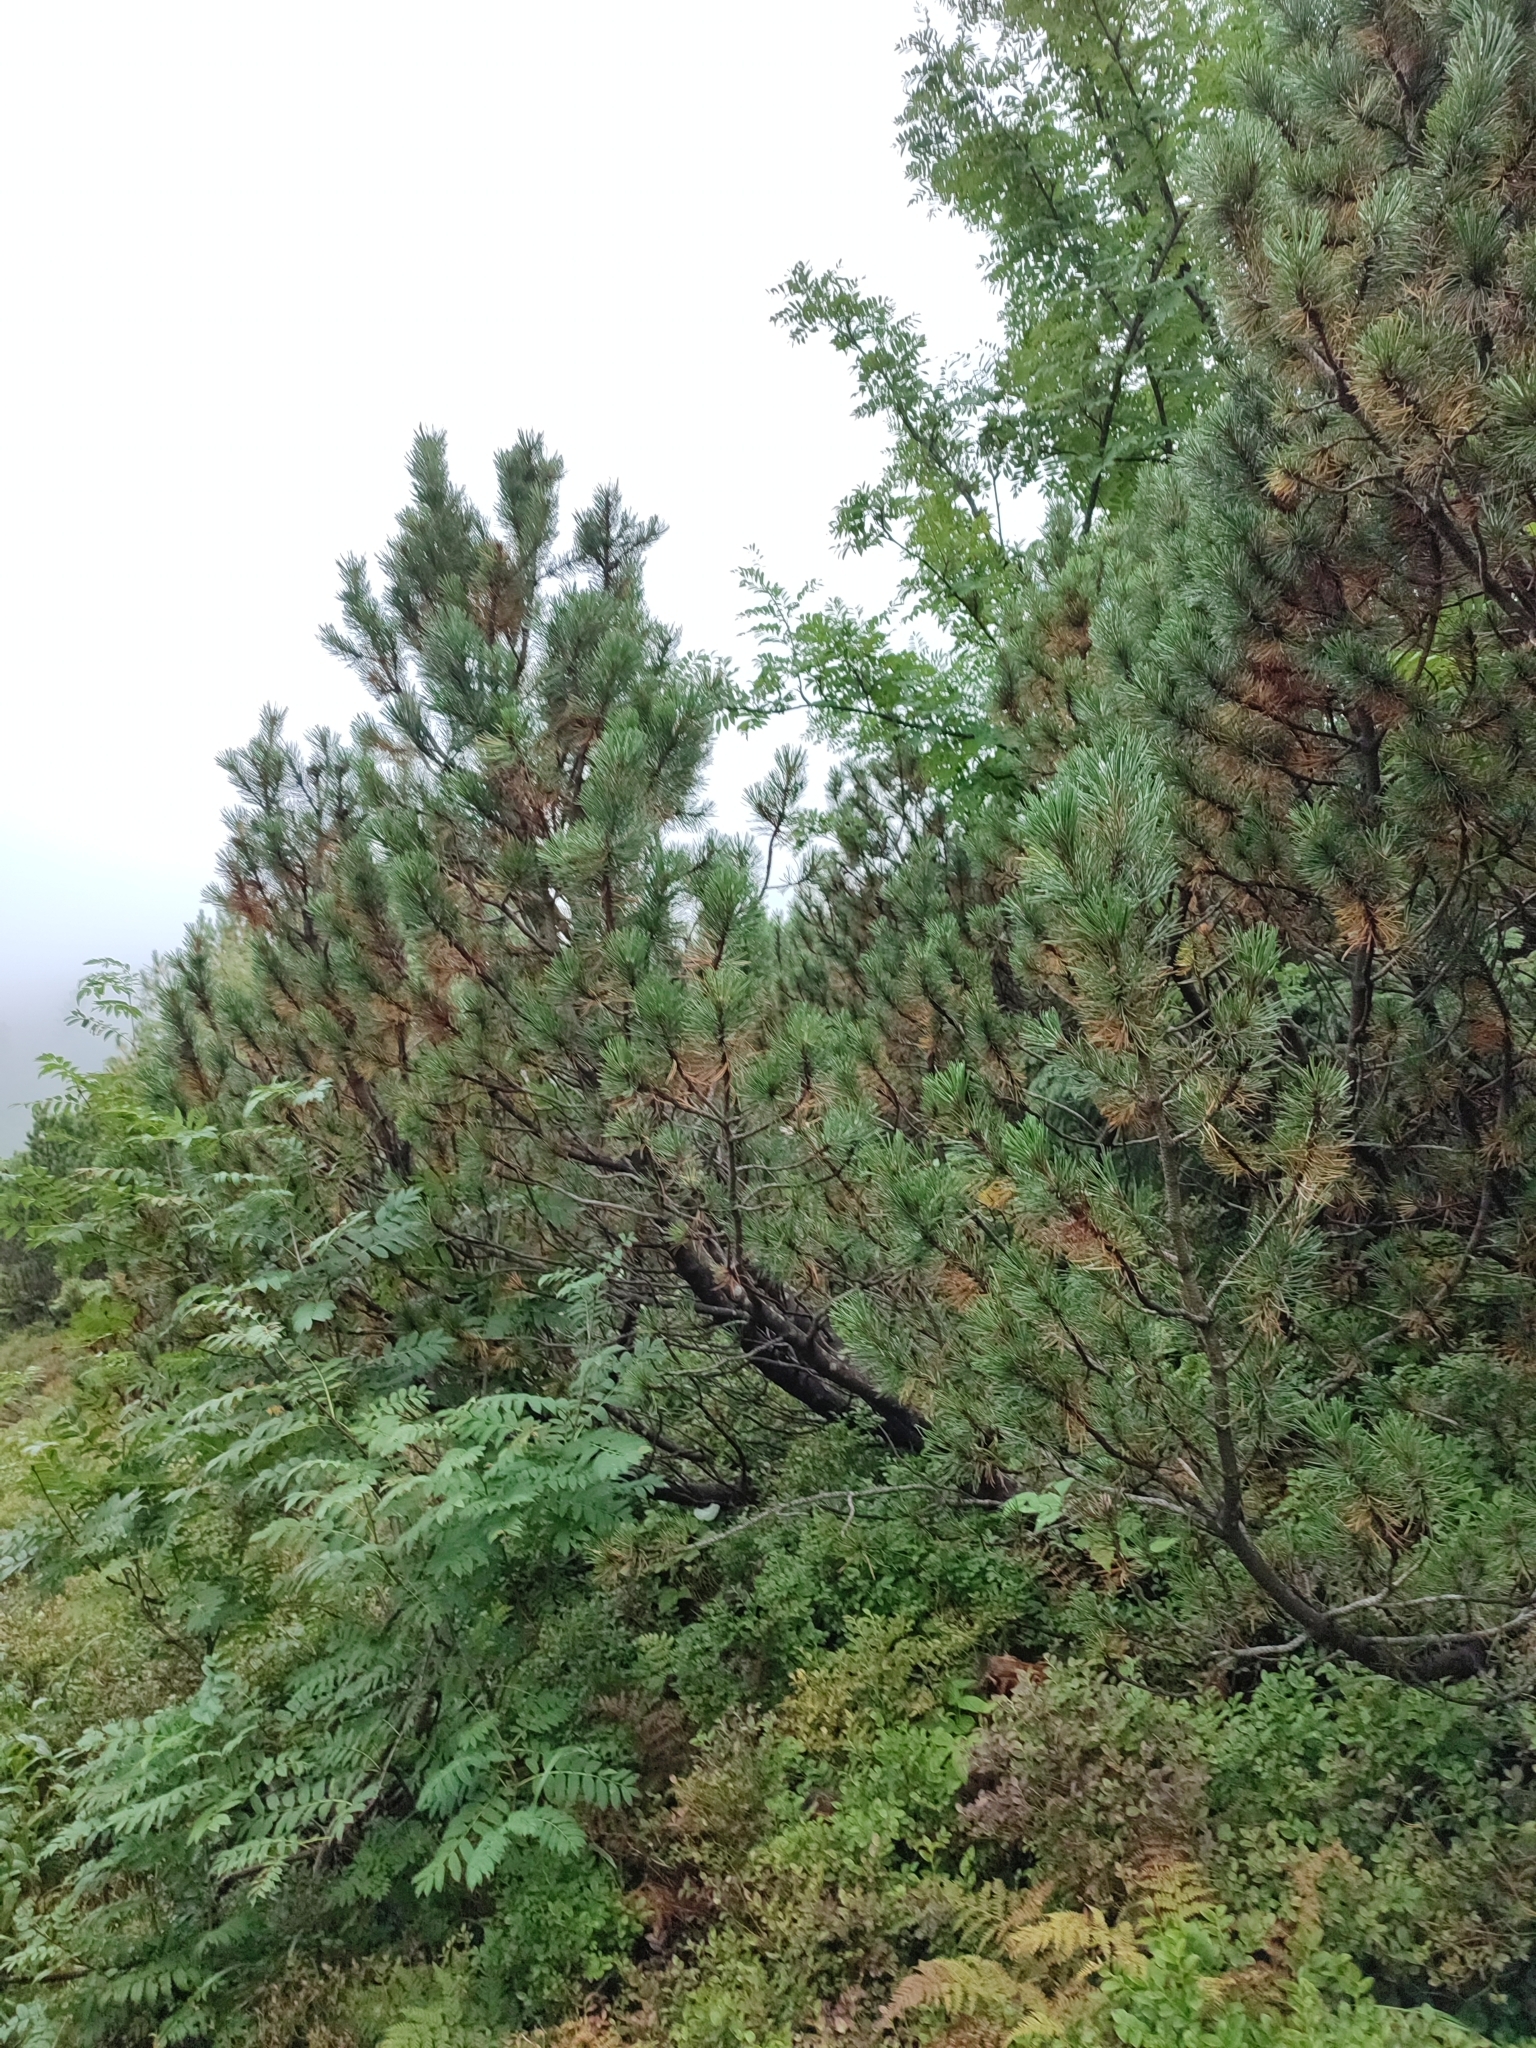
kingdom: Plantae
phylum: Tracheophyta
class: Pinopsida
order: Pinales
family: Pinaceae
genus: Pinus
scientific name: Pinus mugo
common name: Mugo pine
